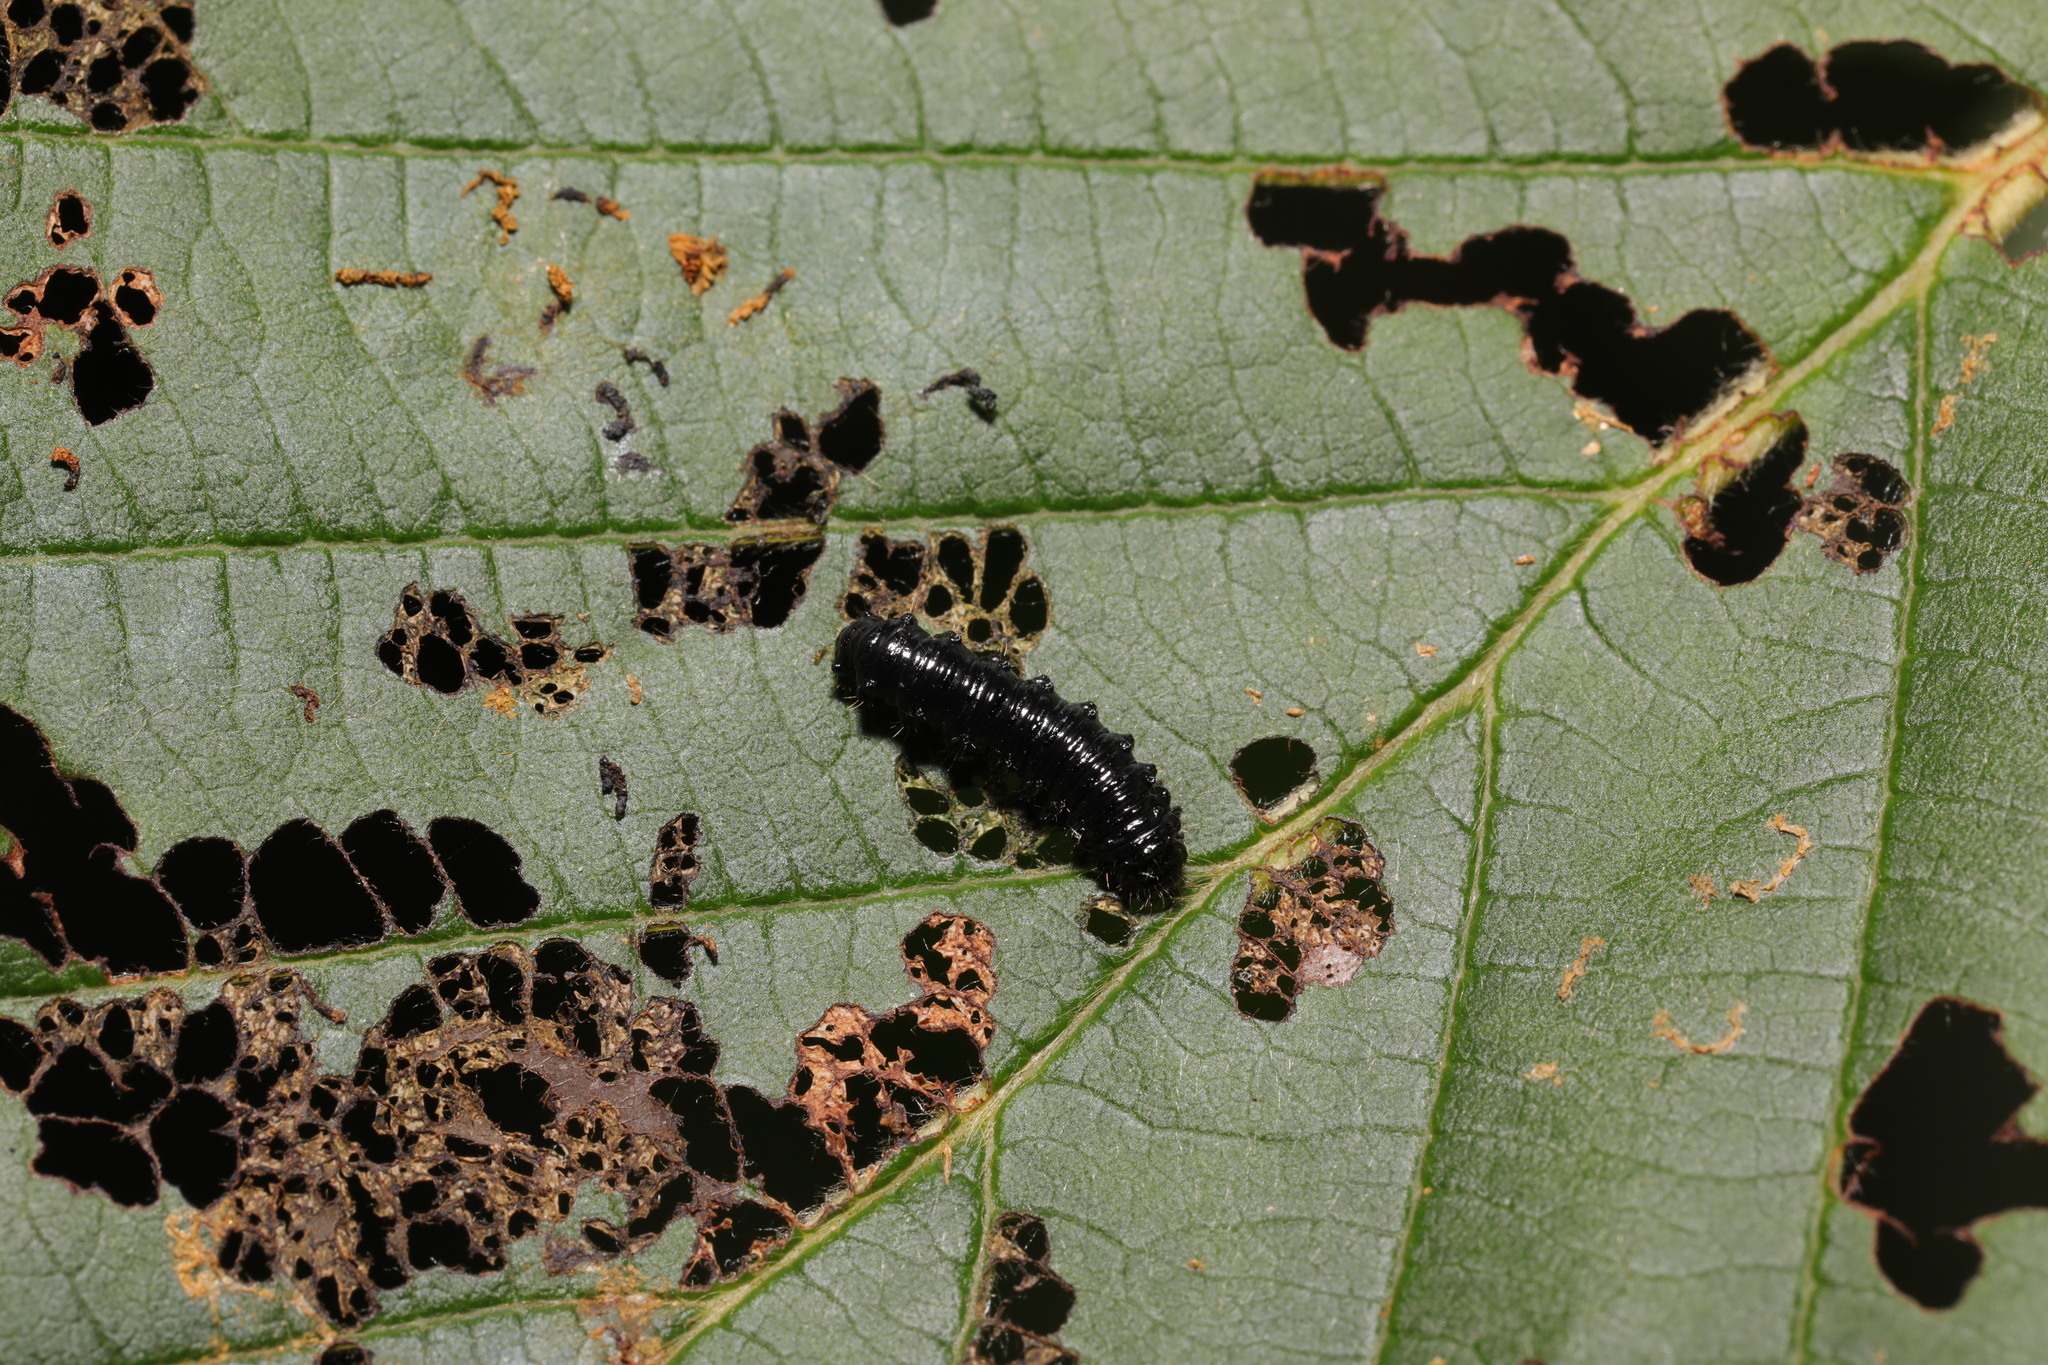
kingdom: Animalia
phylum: Arthropoda
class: Insecta
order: Coleoptera
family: Chrysomelidae
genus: Agelastica
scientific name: Agelastica alni
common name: Alder leaf beetle
